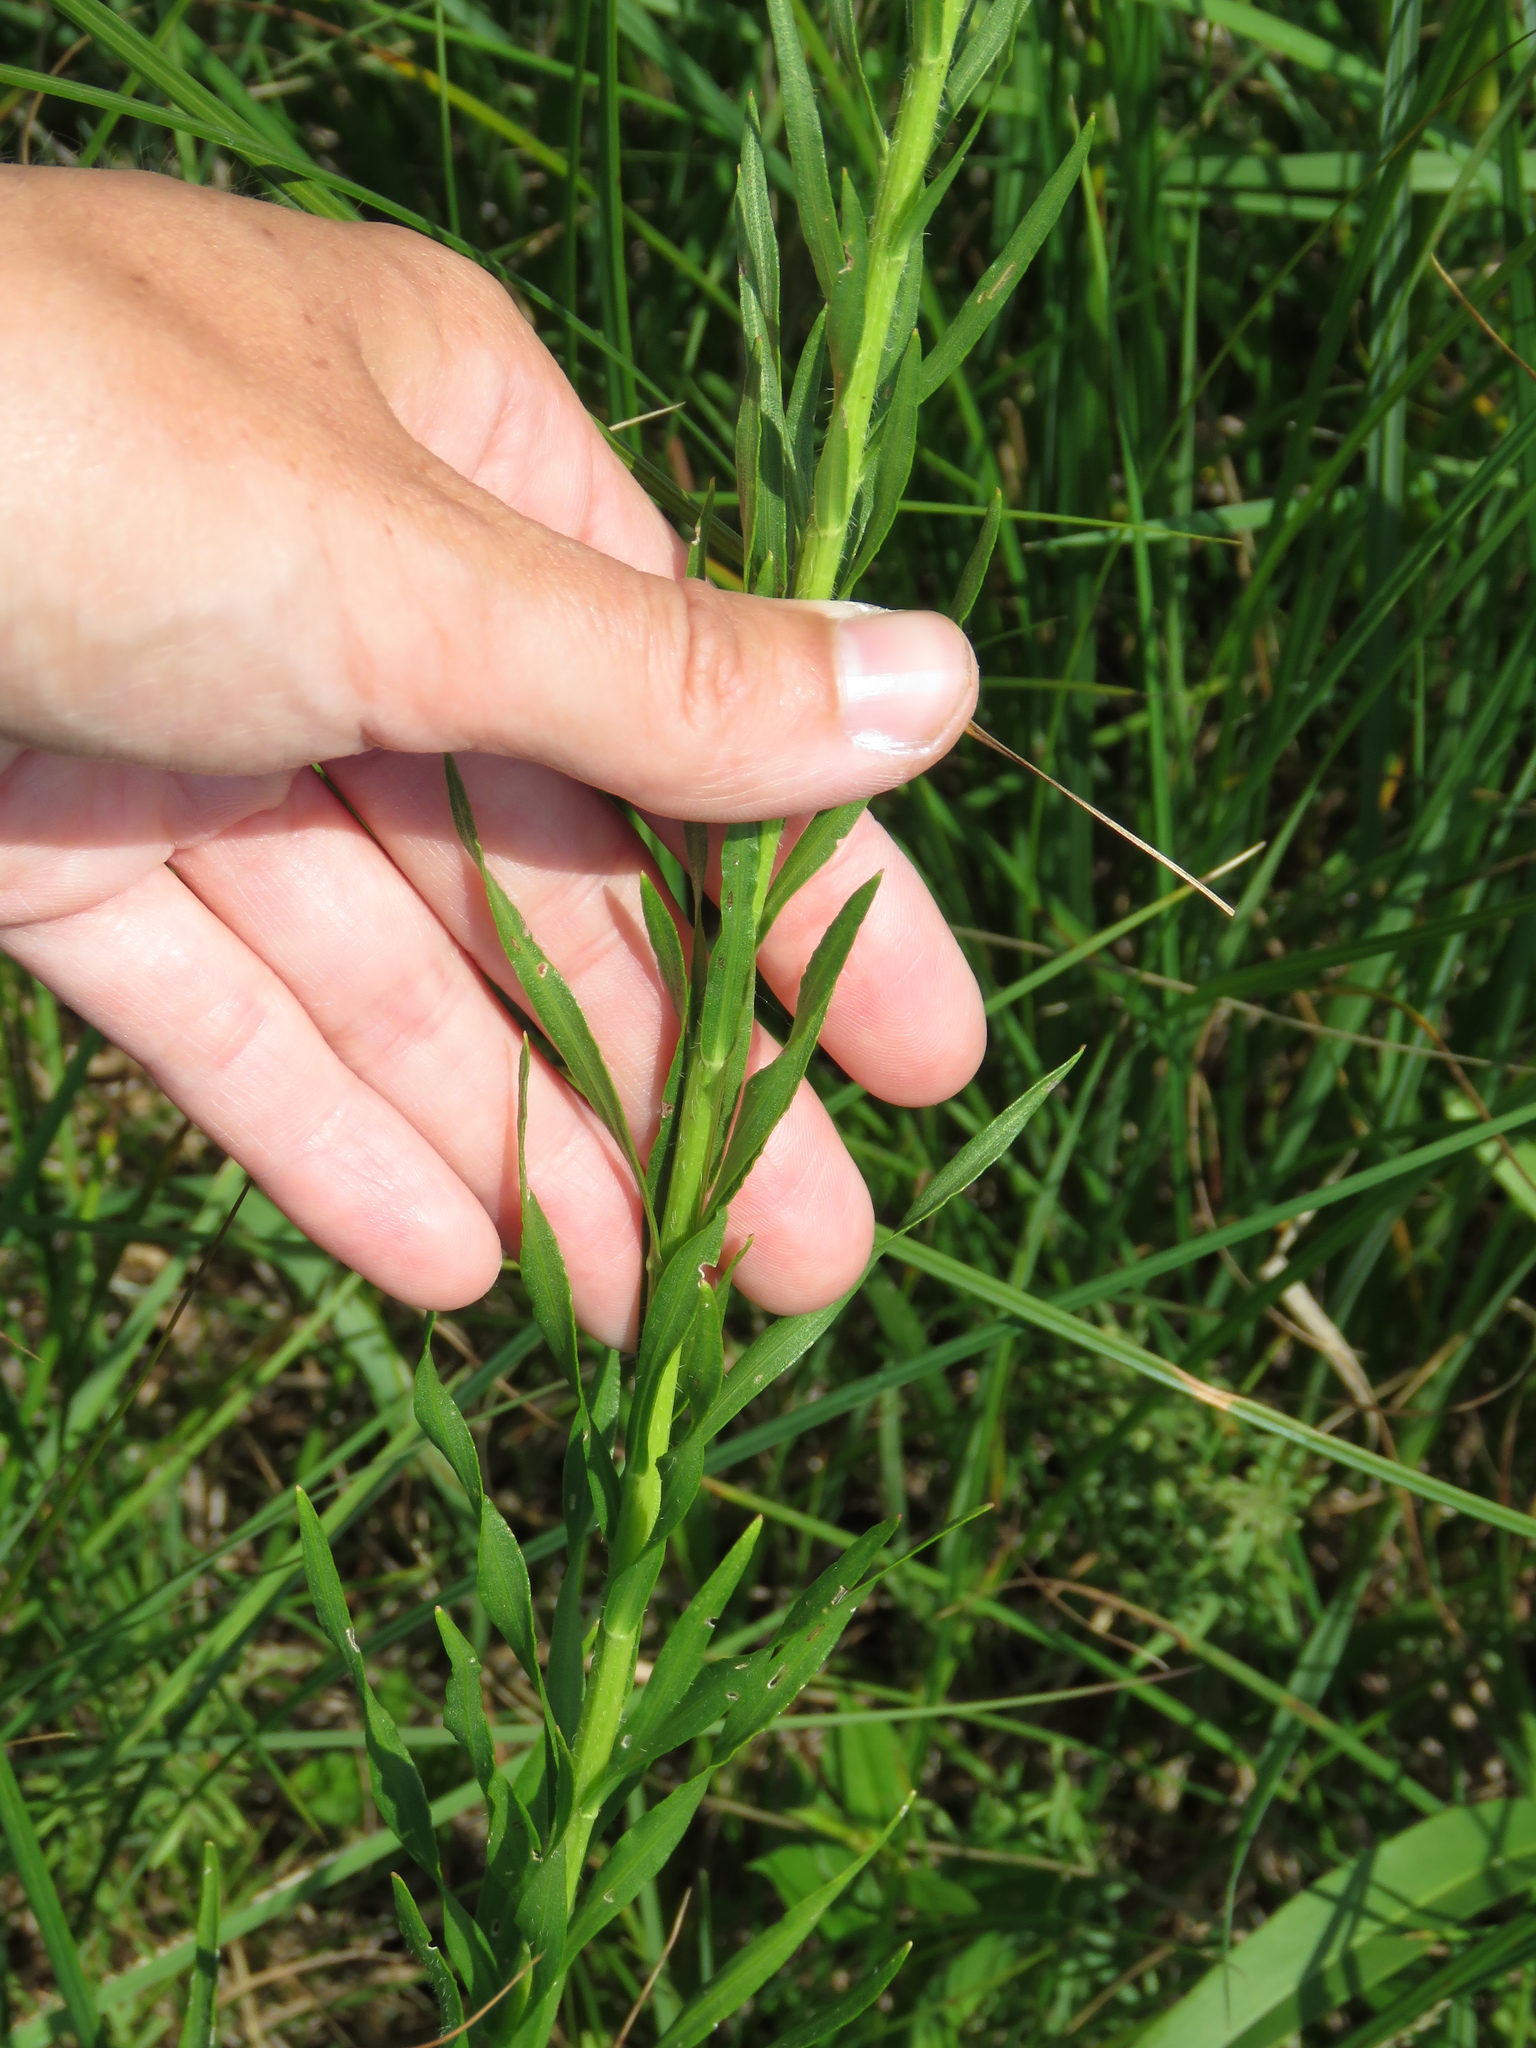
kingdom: Plantae
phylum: Tracheophyta
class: Magnoliopsida
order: Asterales
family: Asteraceae
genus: Liatris
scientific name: Liatris spicata
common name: Florist gayfeather
